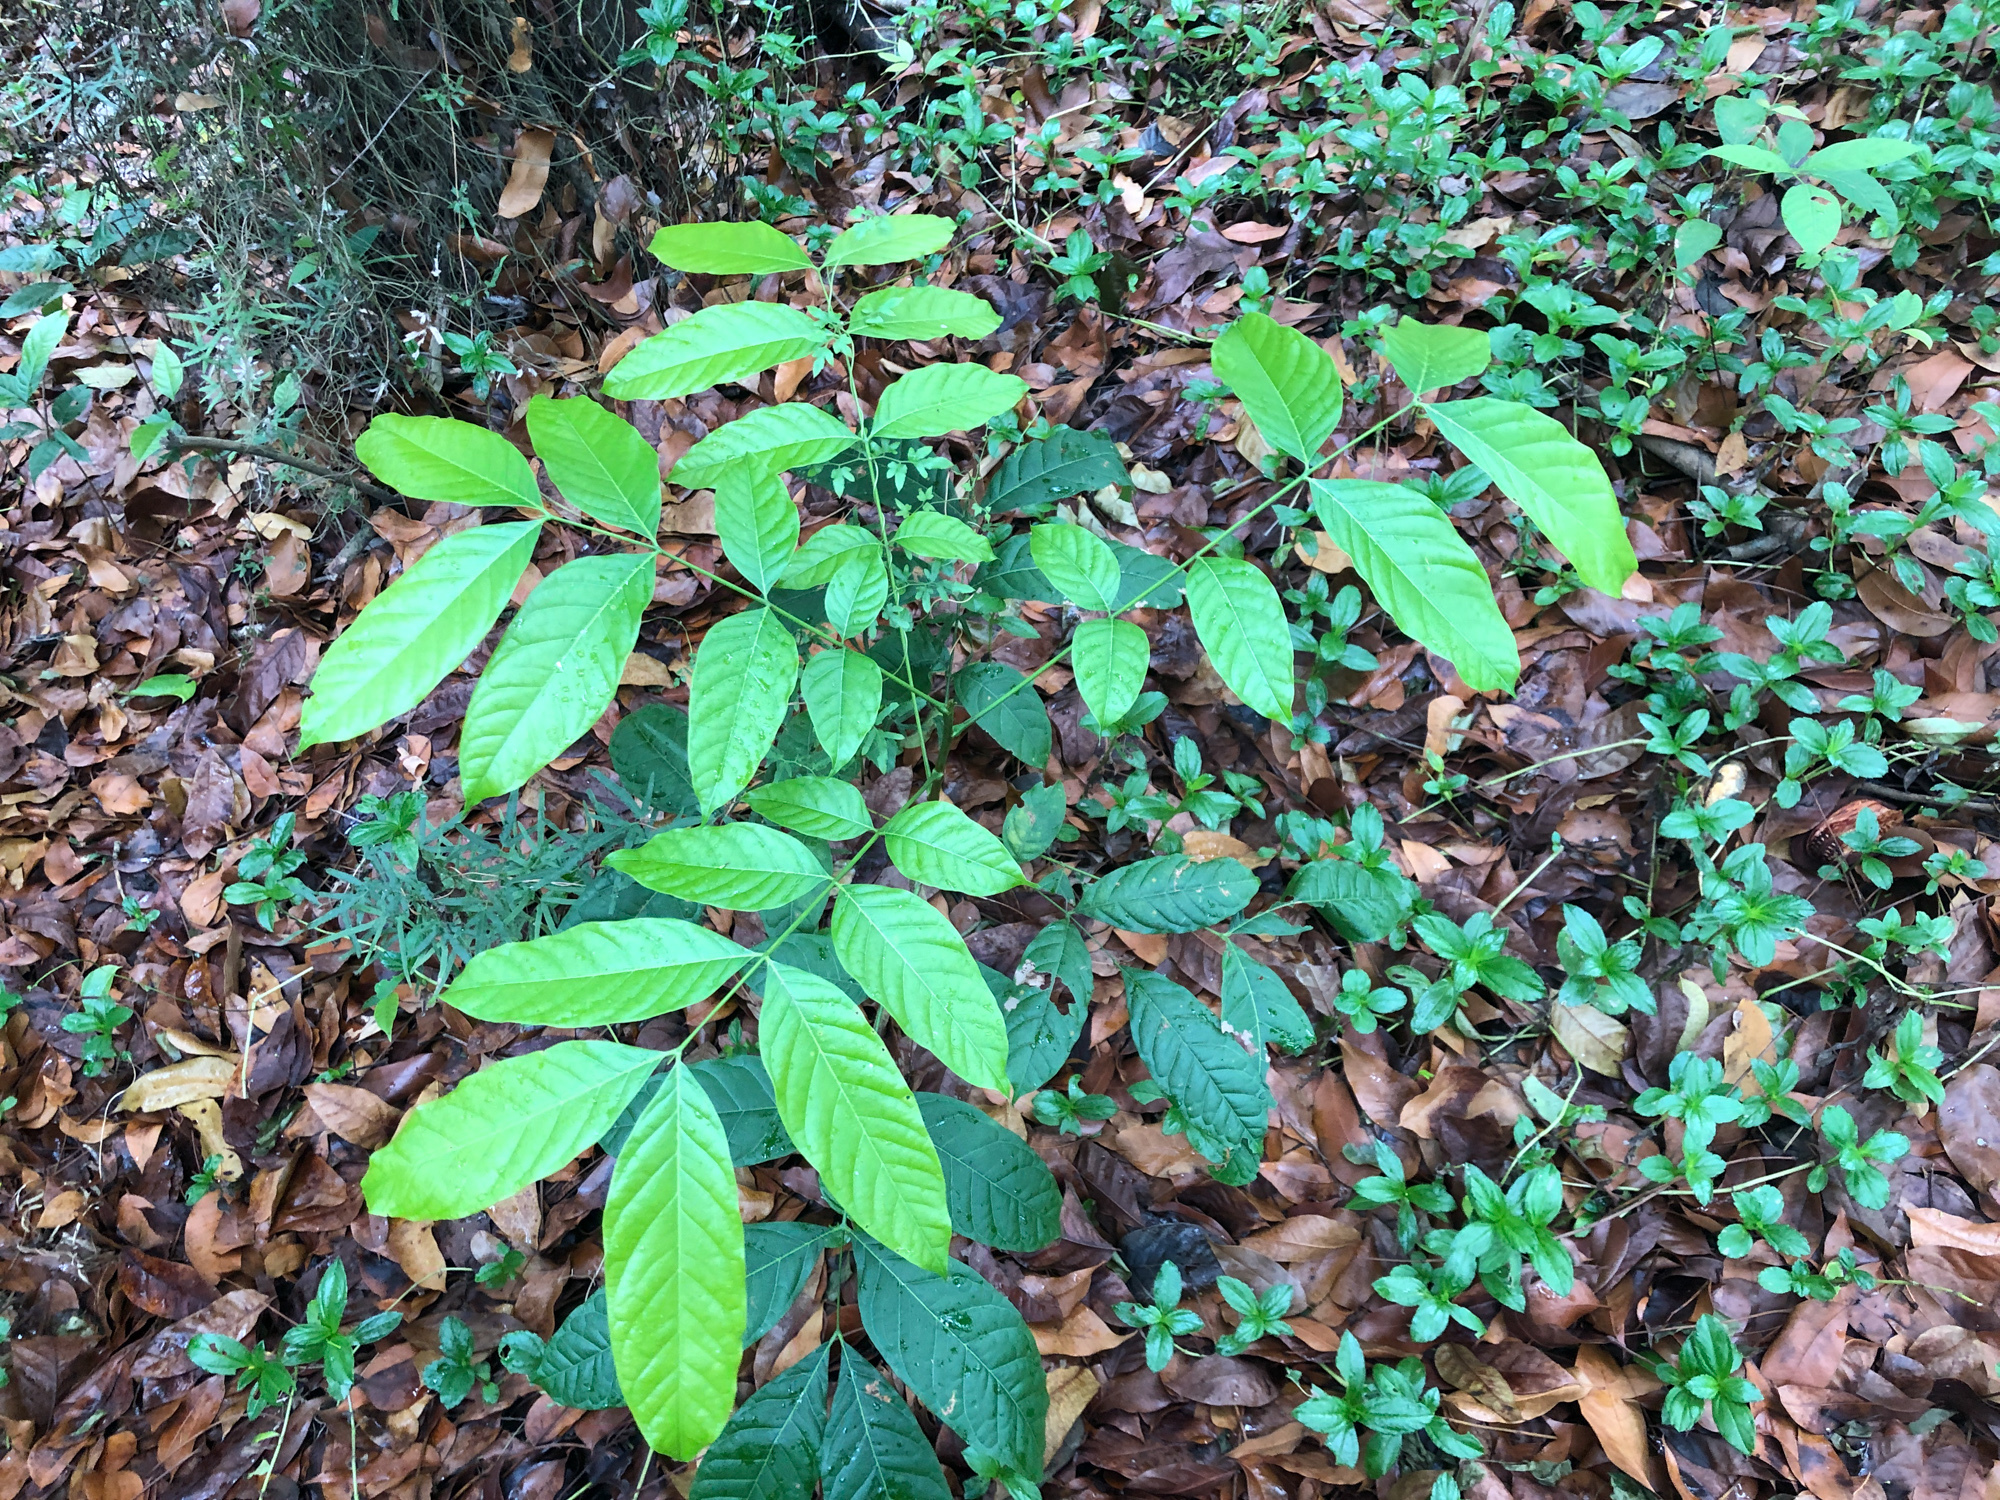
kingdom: Plantae
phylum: Tracheophyta
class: Magnoliopsida
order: Sapindales
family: Meliaceae
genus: Swietenia
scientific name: Swietenia macrophylla
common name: Honduras mahogany
